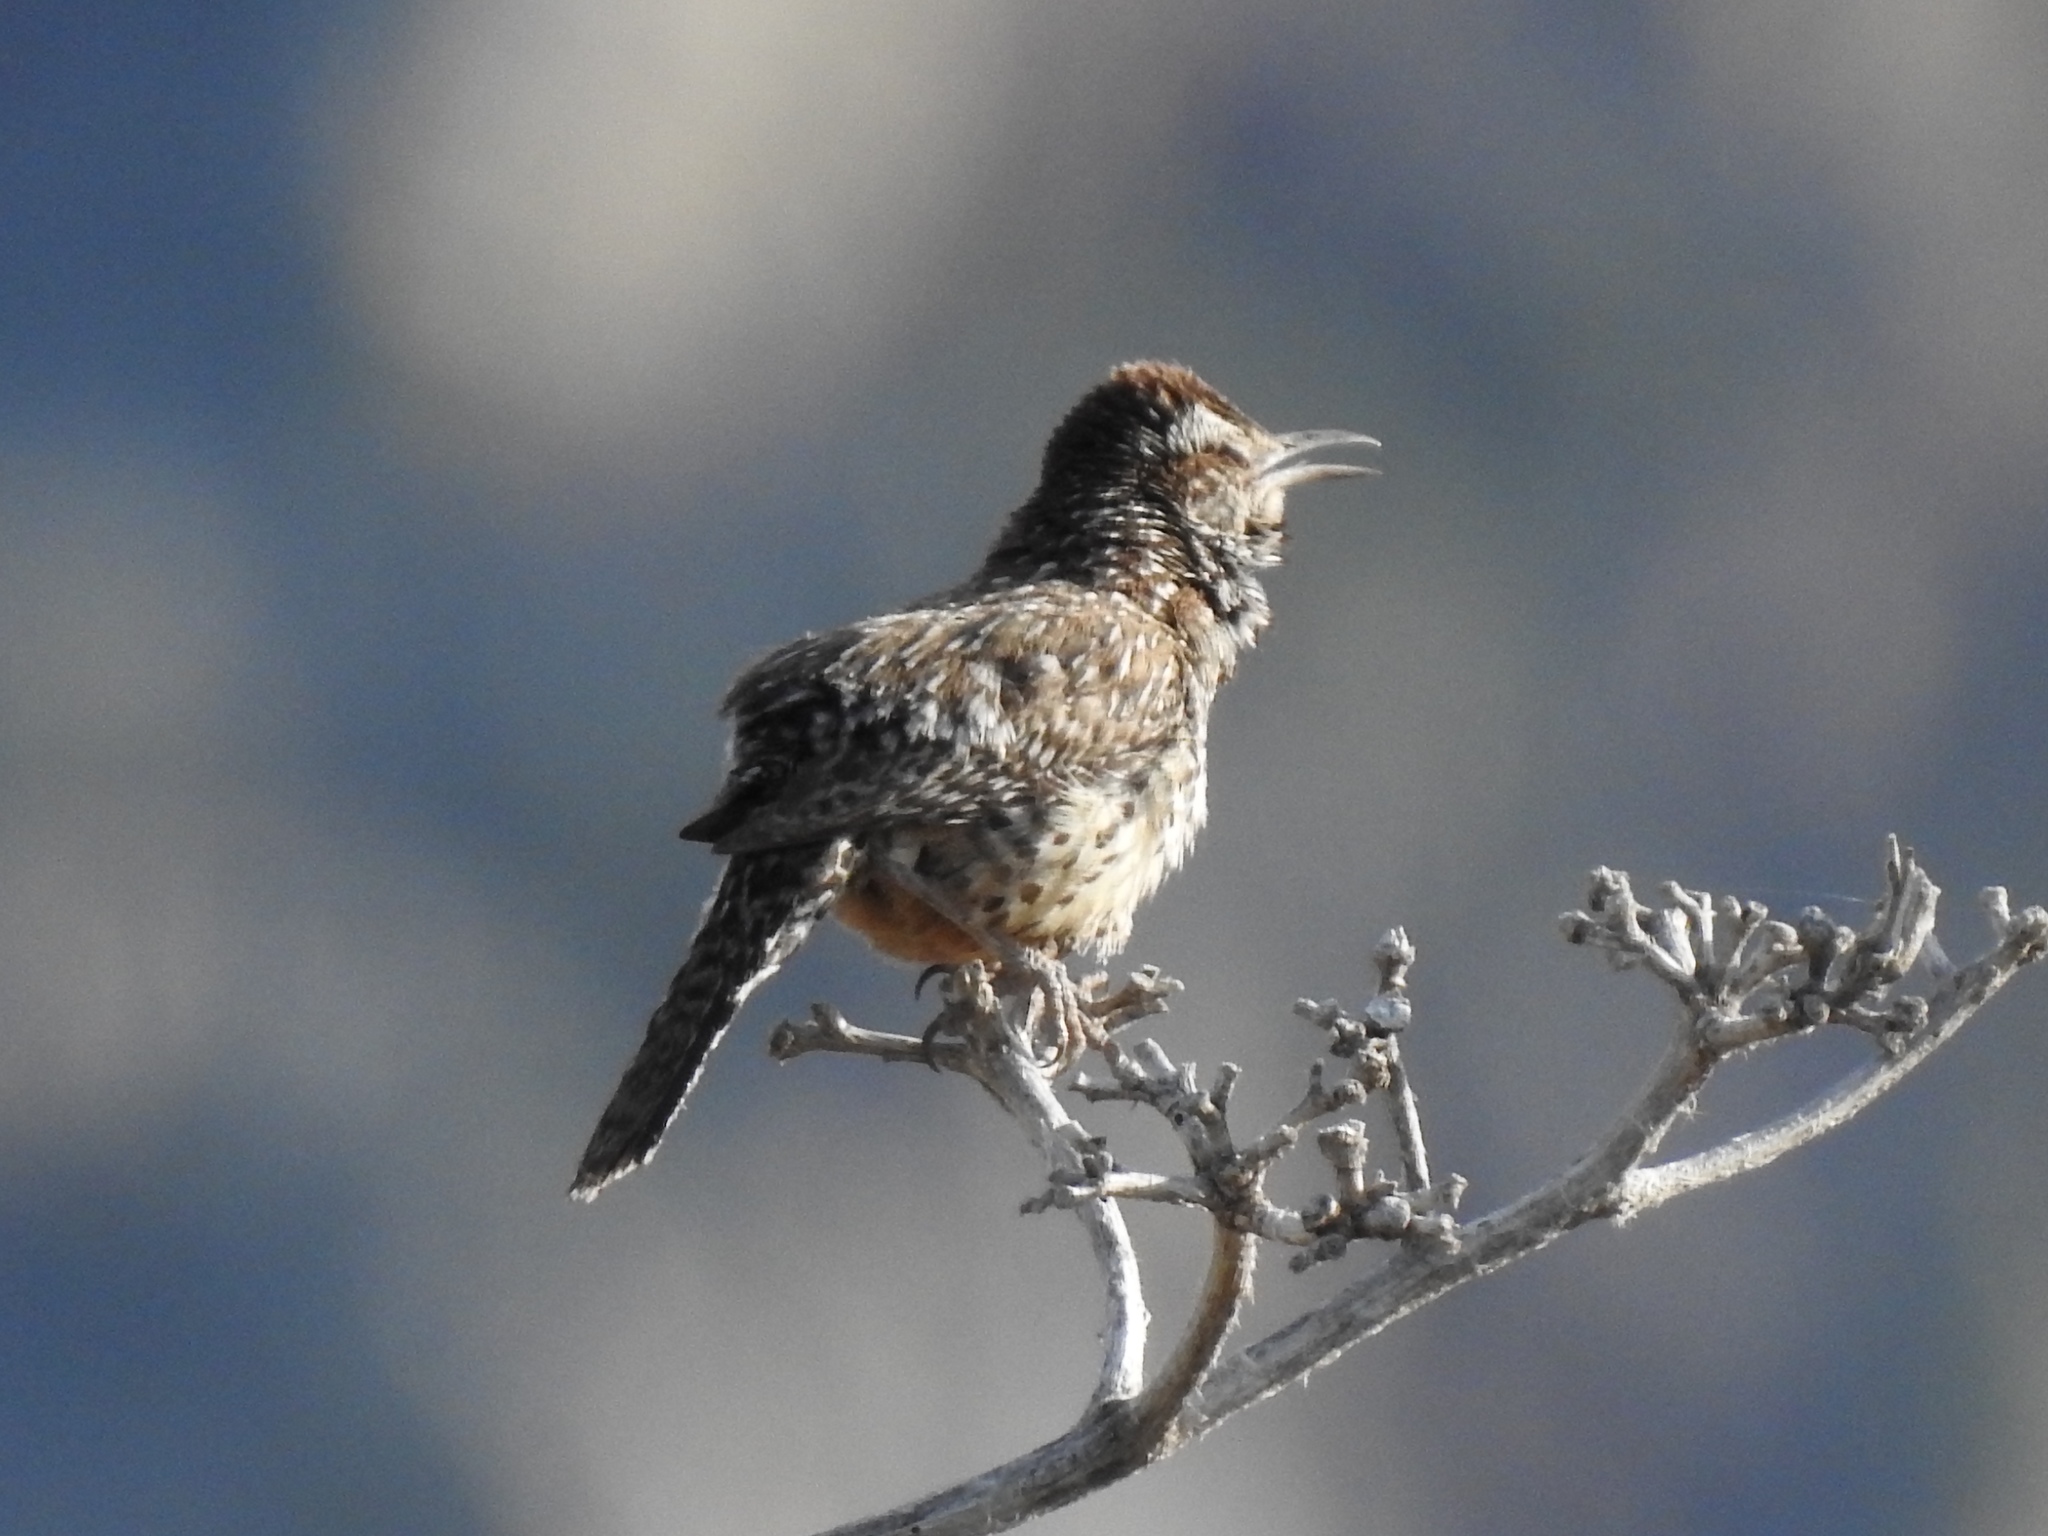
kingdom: Animalia
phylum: Chordata
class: Aves
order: Passeriformes
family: Troglodytidae
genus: Campylorhynchus
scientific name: Campylorhynchus brunneicapillus
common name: Cactus wren
